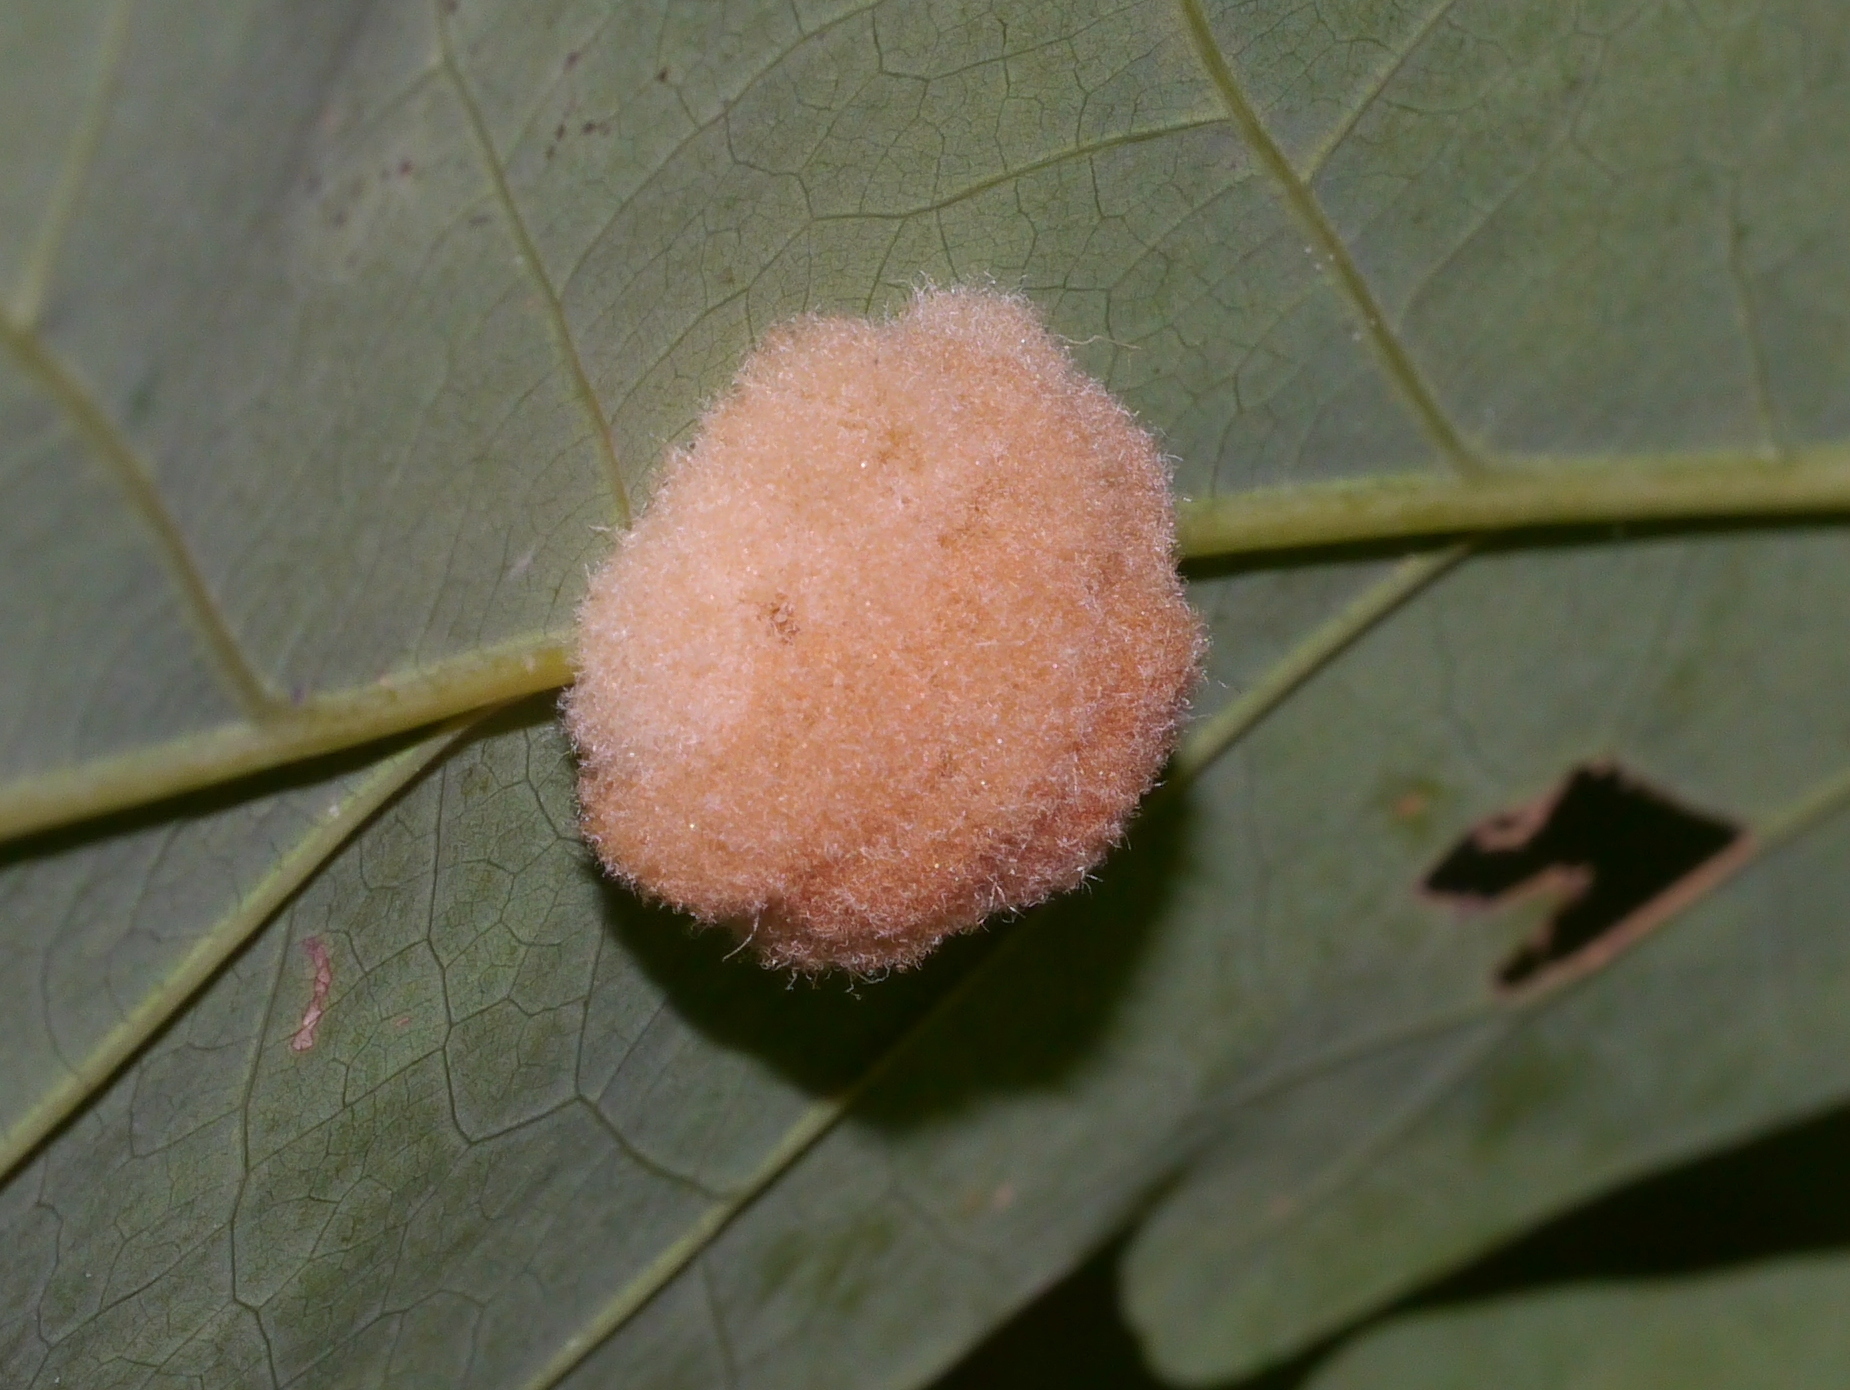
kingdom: Animalia
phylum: Arthropoda
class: Insecta
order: Hymenoptera
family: Cynipidae
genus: Andricus
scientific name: Andricus quercusflocci
